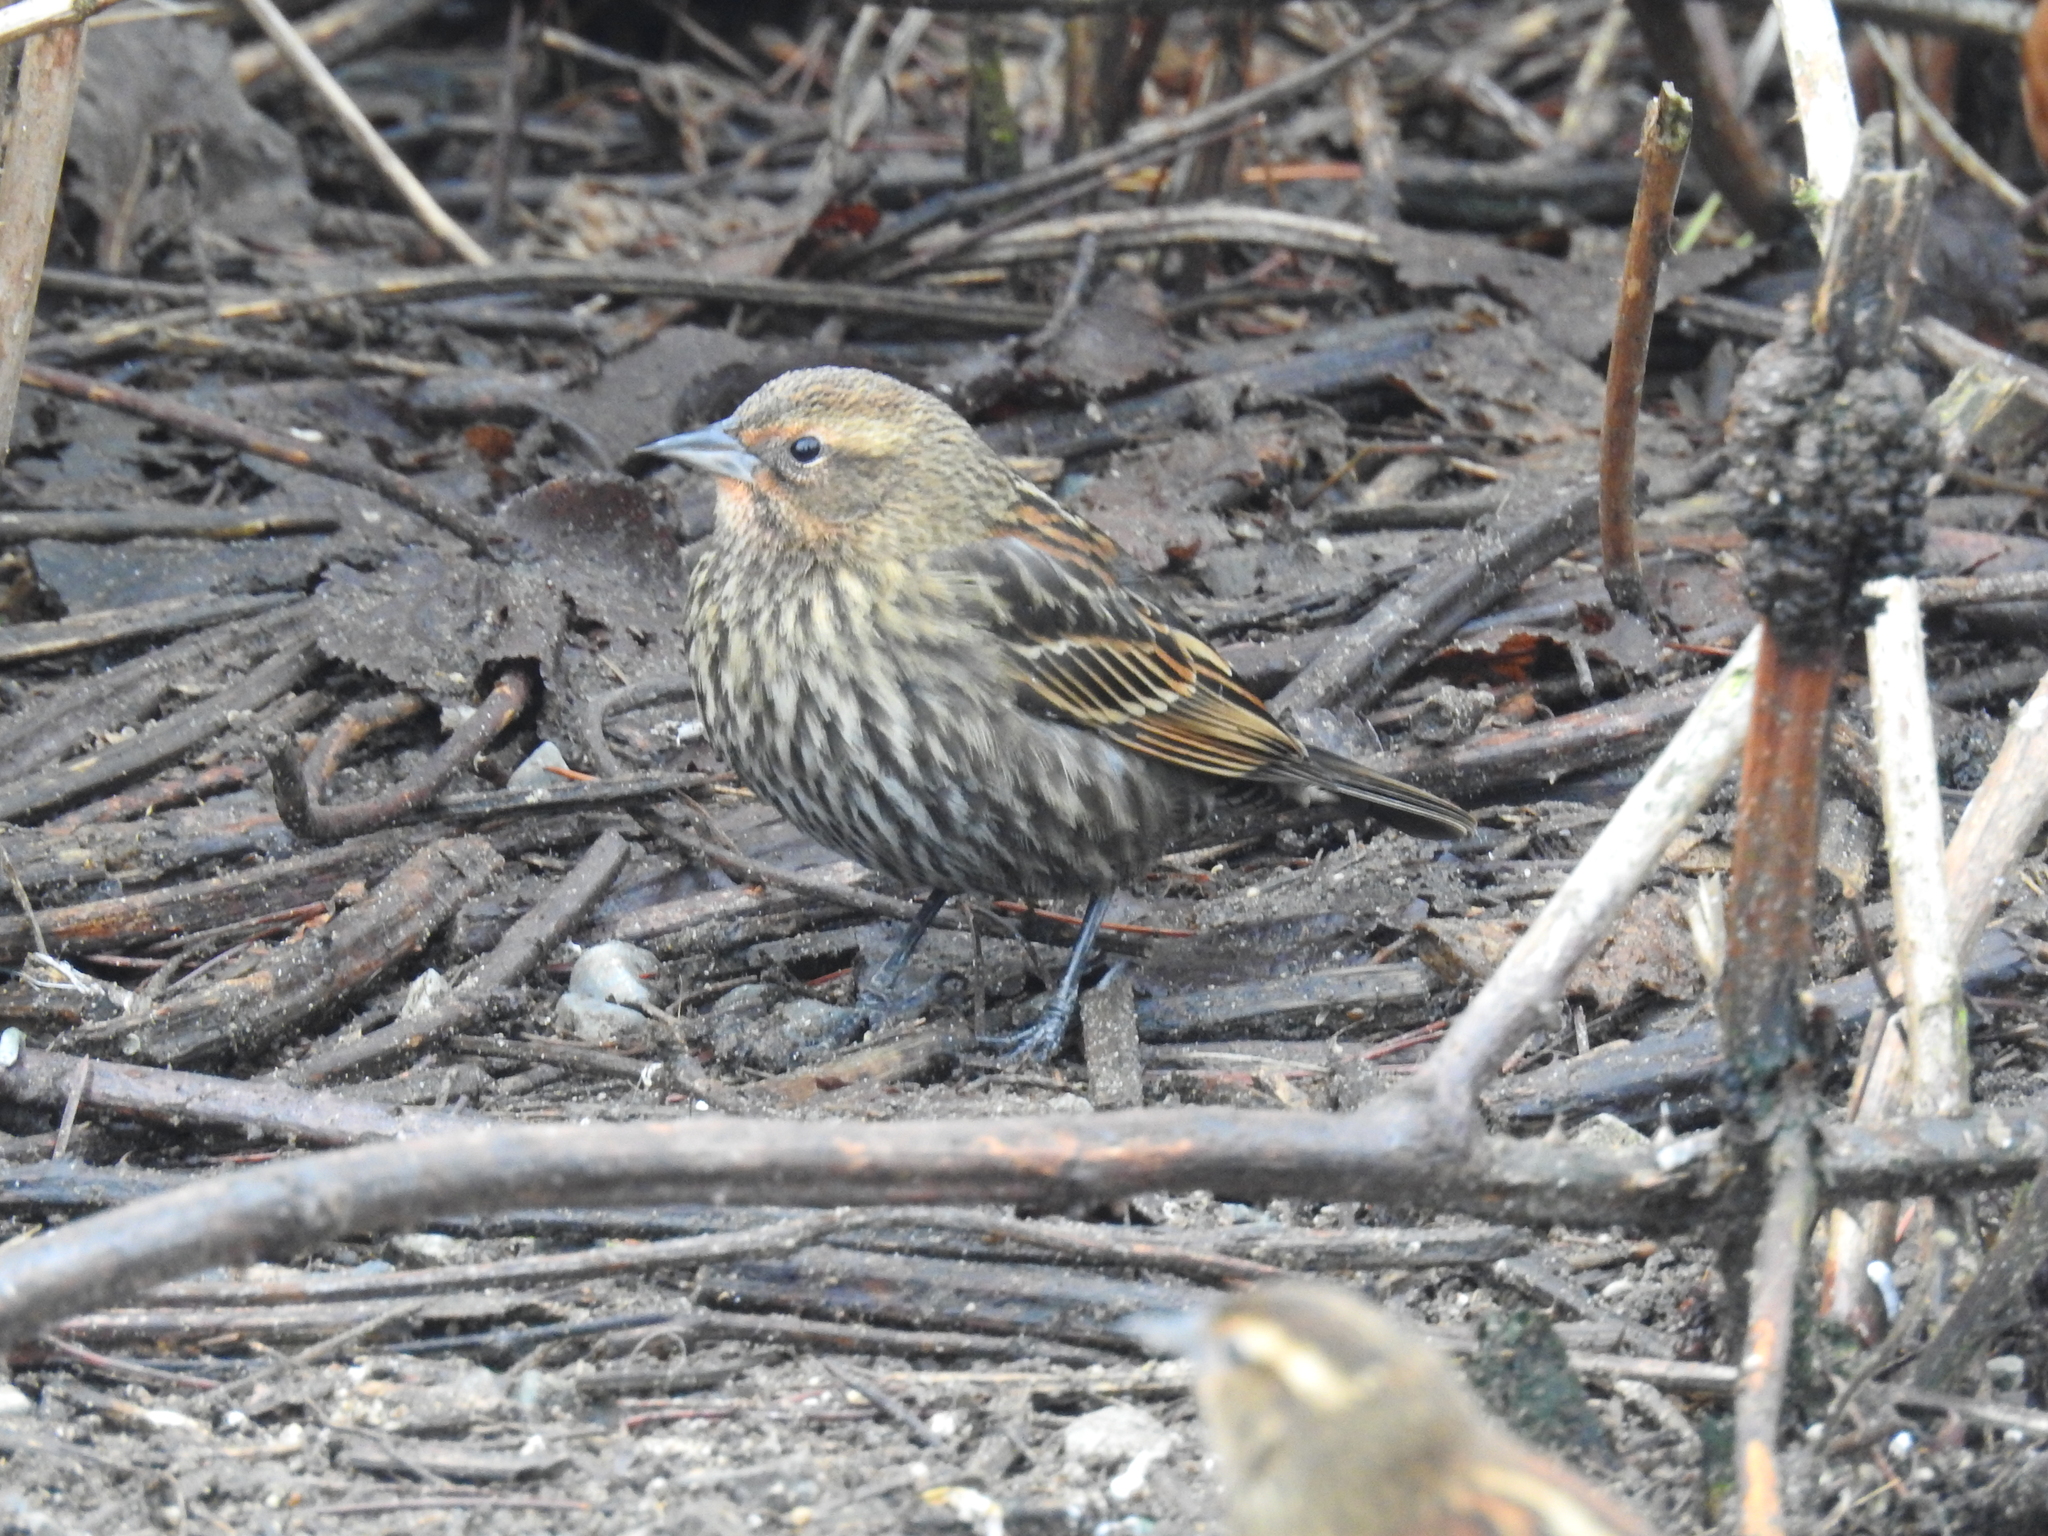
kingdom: Animalia
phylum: Chordata
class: Aves
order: Passeriformes
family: Icteridae
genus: Agelaius
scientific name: Agelaius phoeniceus
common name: Red-winged blackbird
